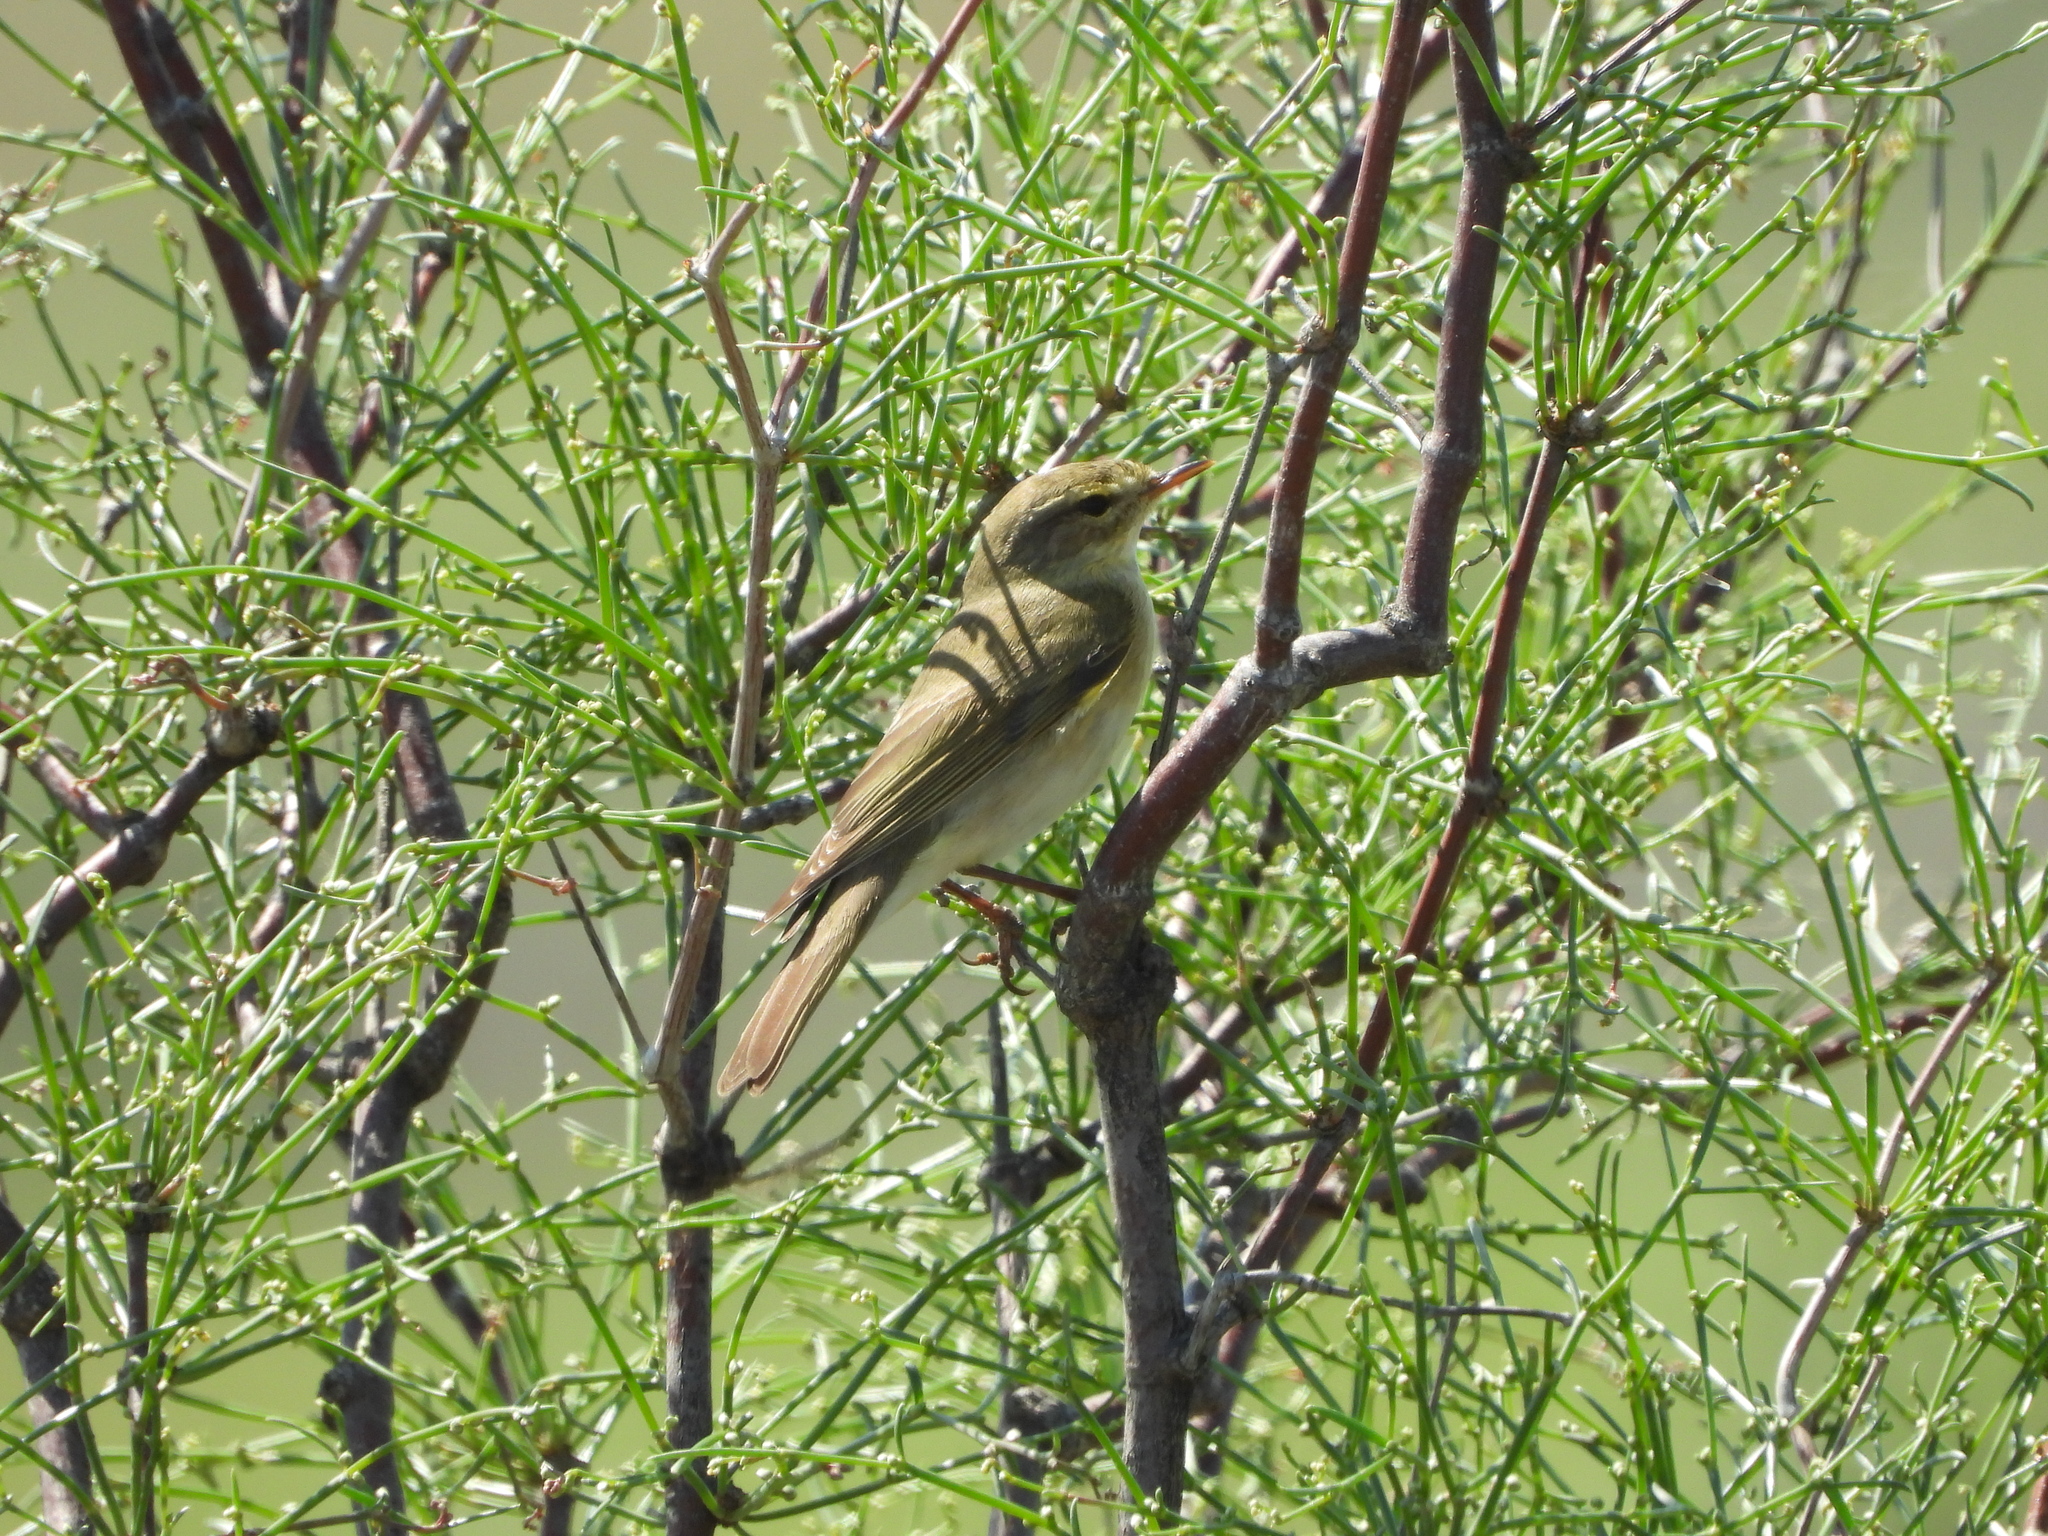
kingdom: Animalia
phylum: Chordata
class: Aves
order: Passeriformes
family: Phylloscopidae
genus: Phylloscopus
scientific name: Phylloscopus collybita
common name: Common chiffchaff
